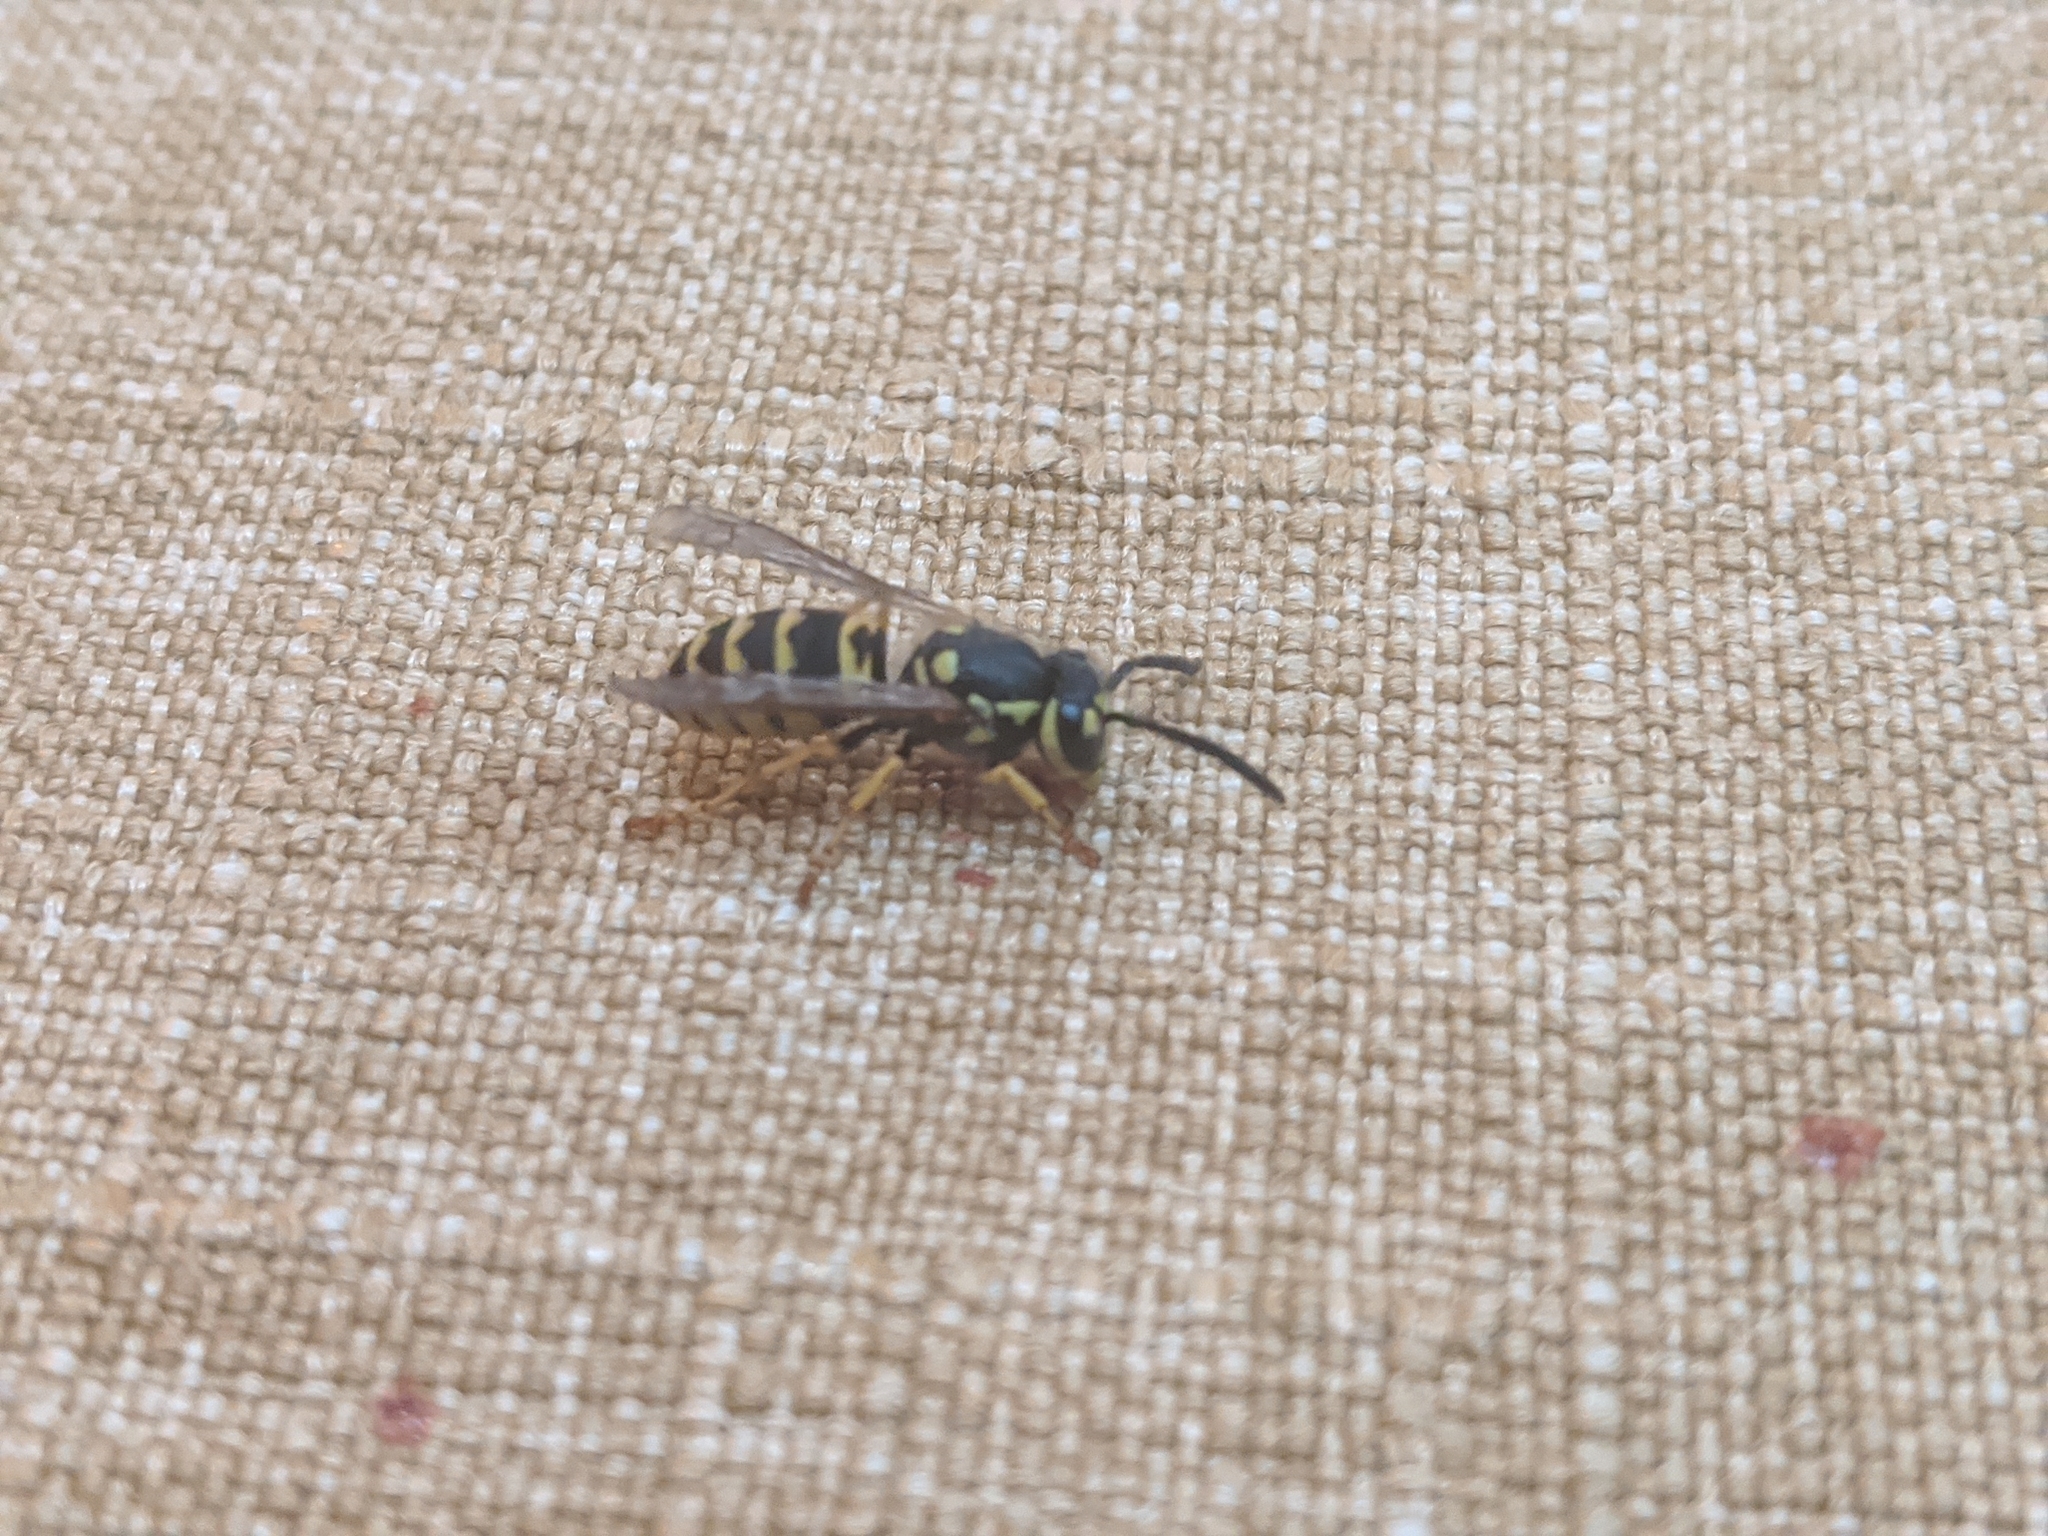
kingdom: Animalia
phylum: Arthropoda
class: Insecta
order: Hymenoptera
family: Vespidae
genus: Vespula
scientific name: Vespula germanica
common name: German wasp
